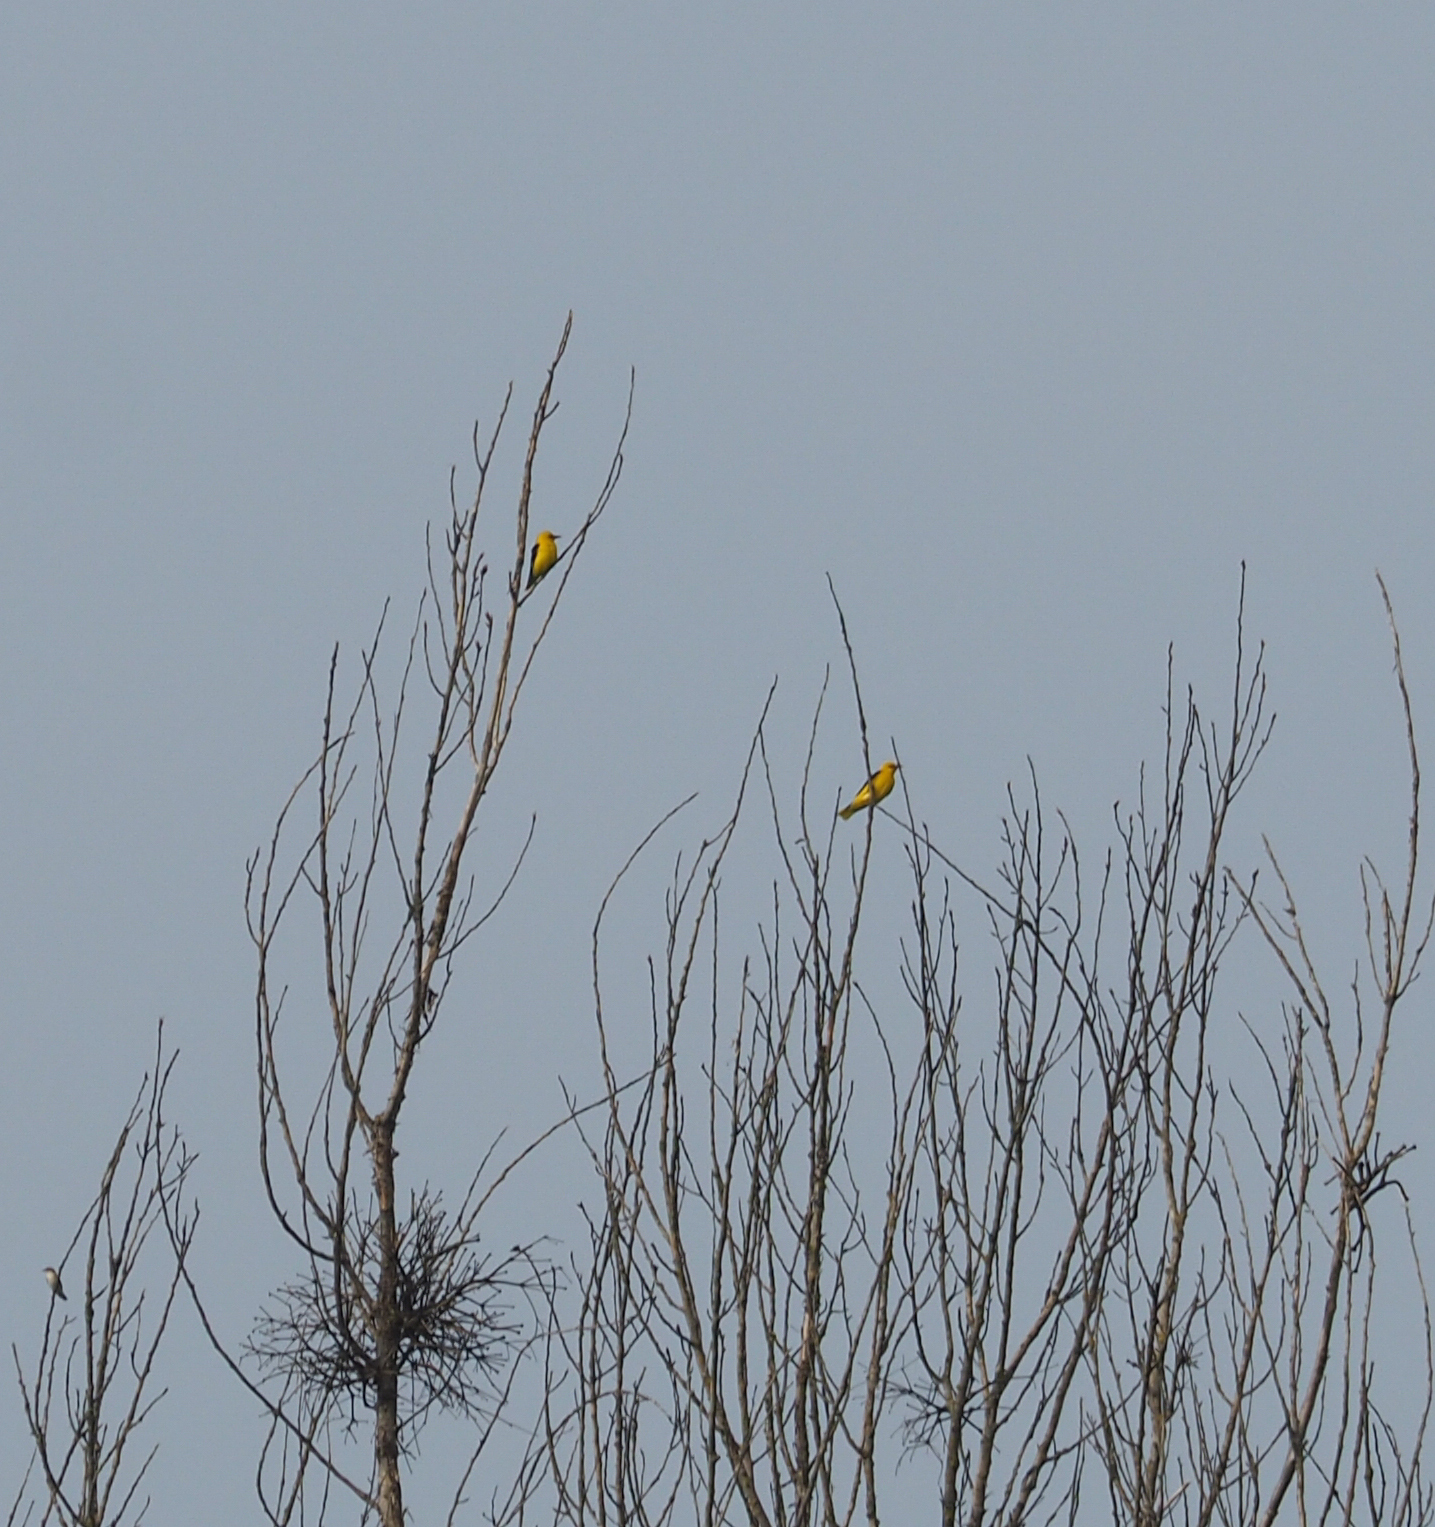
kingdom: Animalia
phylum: Chordata
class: Aves
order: Passeriformes
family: Oriolidae
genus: Oriolus
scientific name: Oriolus oriolus
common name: Eurasian golden oriole
